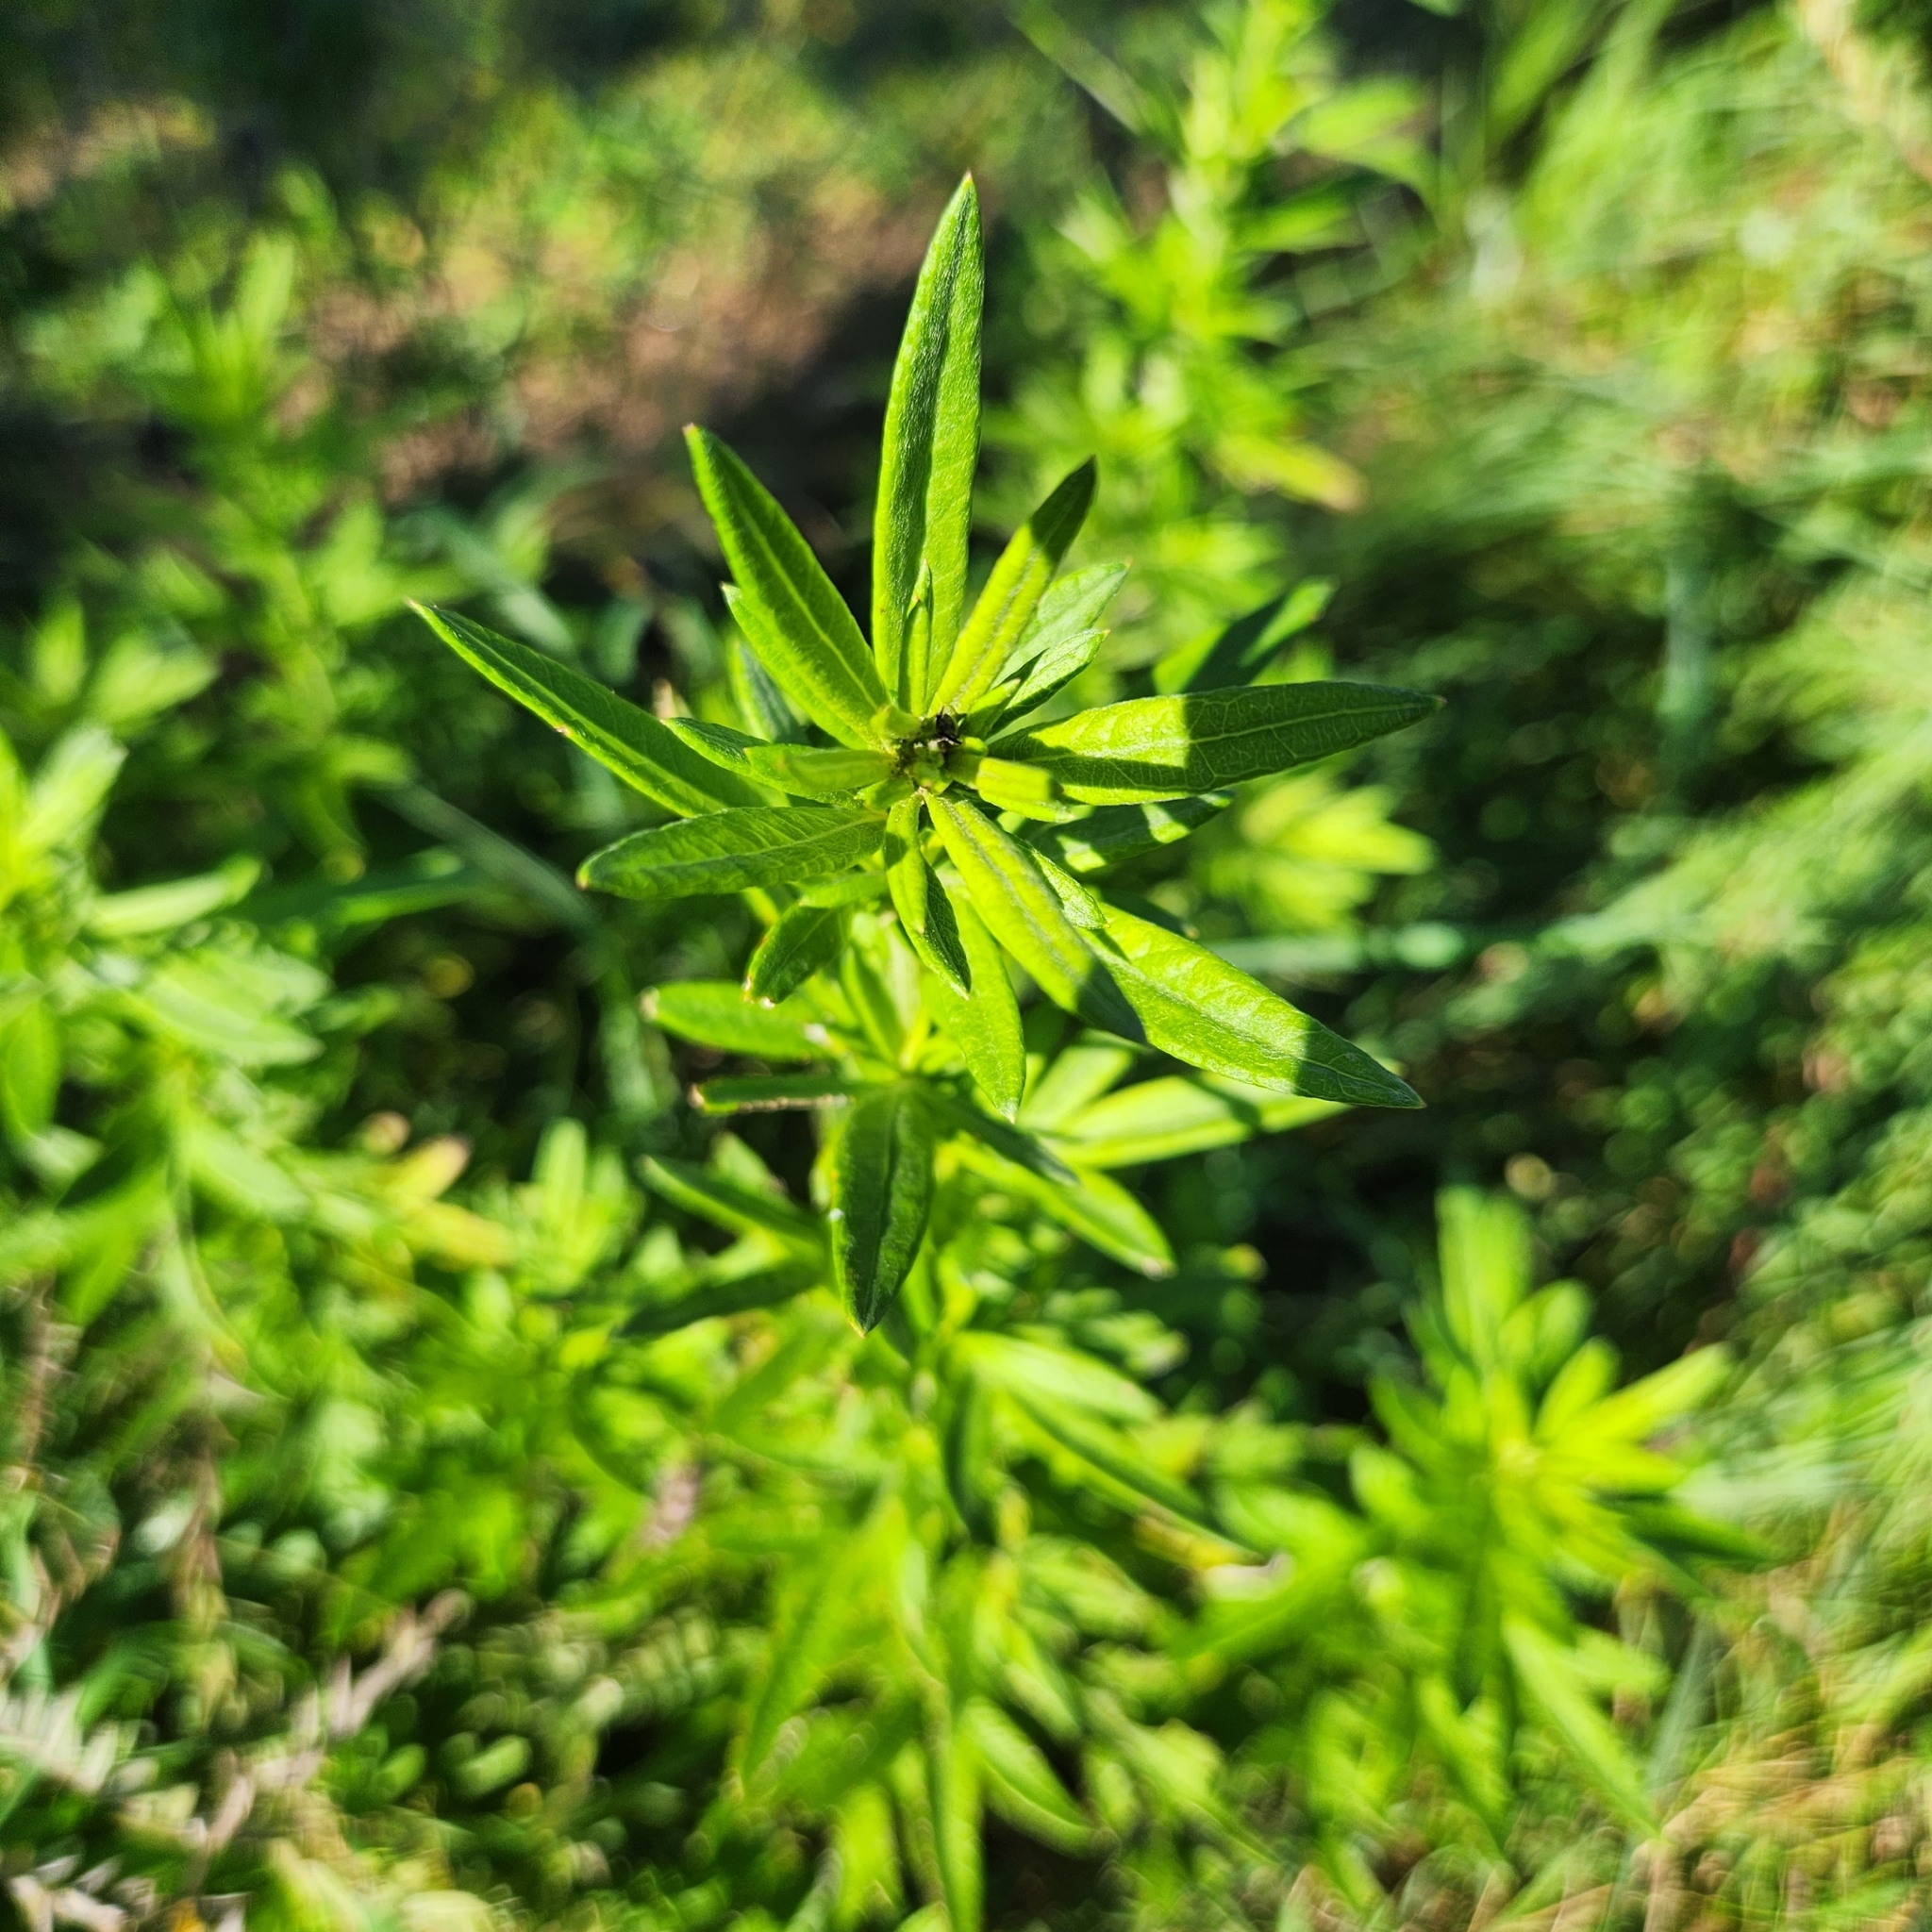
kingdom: Plantae
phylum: Tracheophyta
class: Magnoliopsida
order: Asterales
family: Asteraceae
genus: Artemisia
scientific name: Artemisia vulgaris
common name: Mugwort
